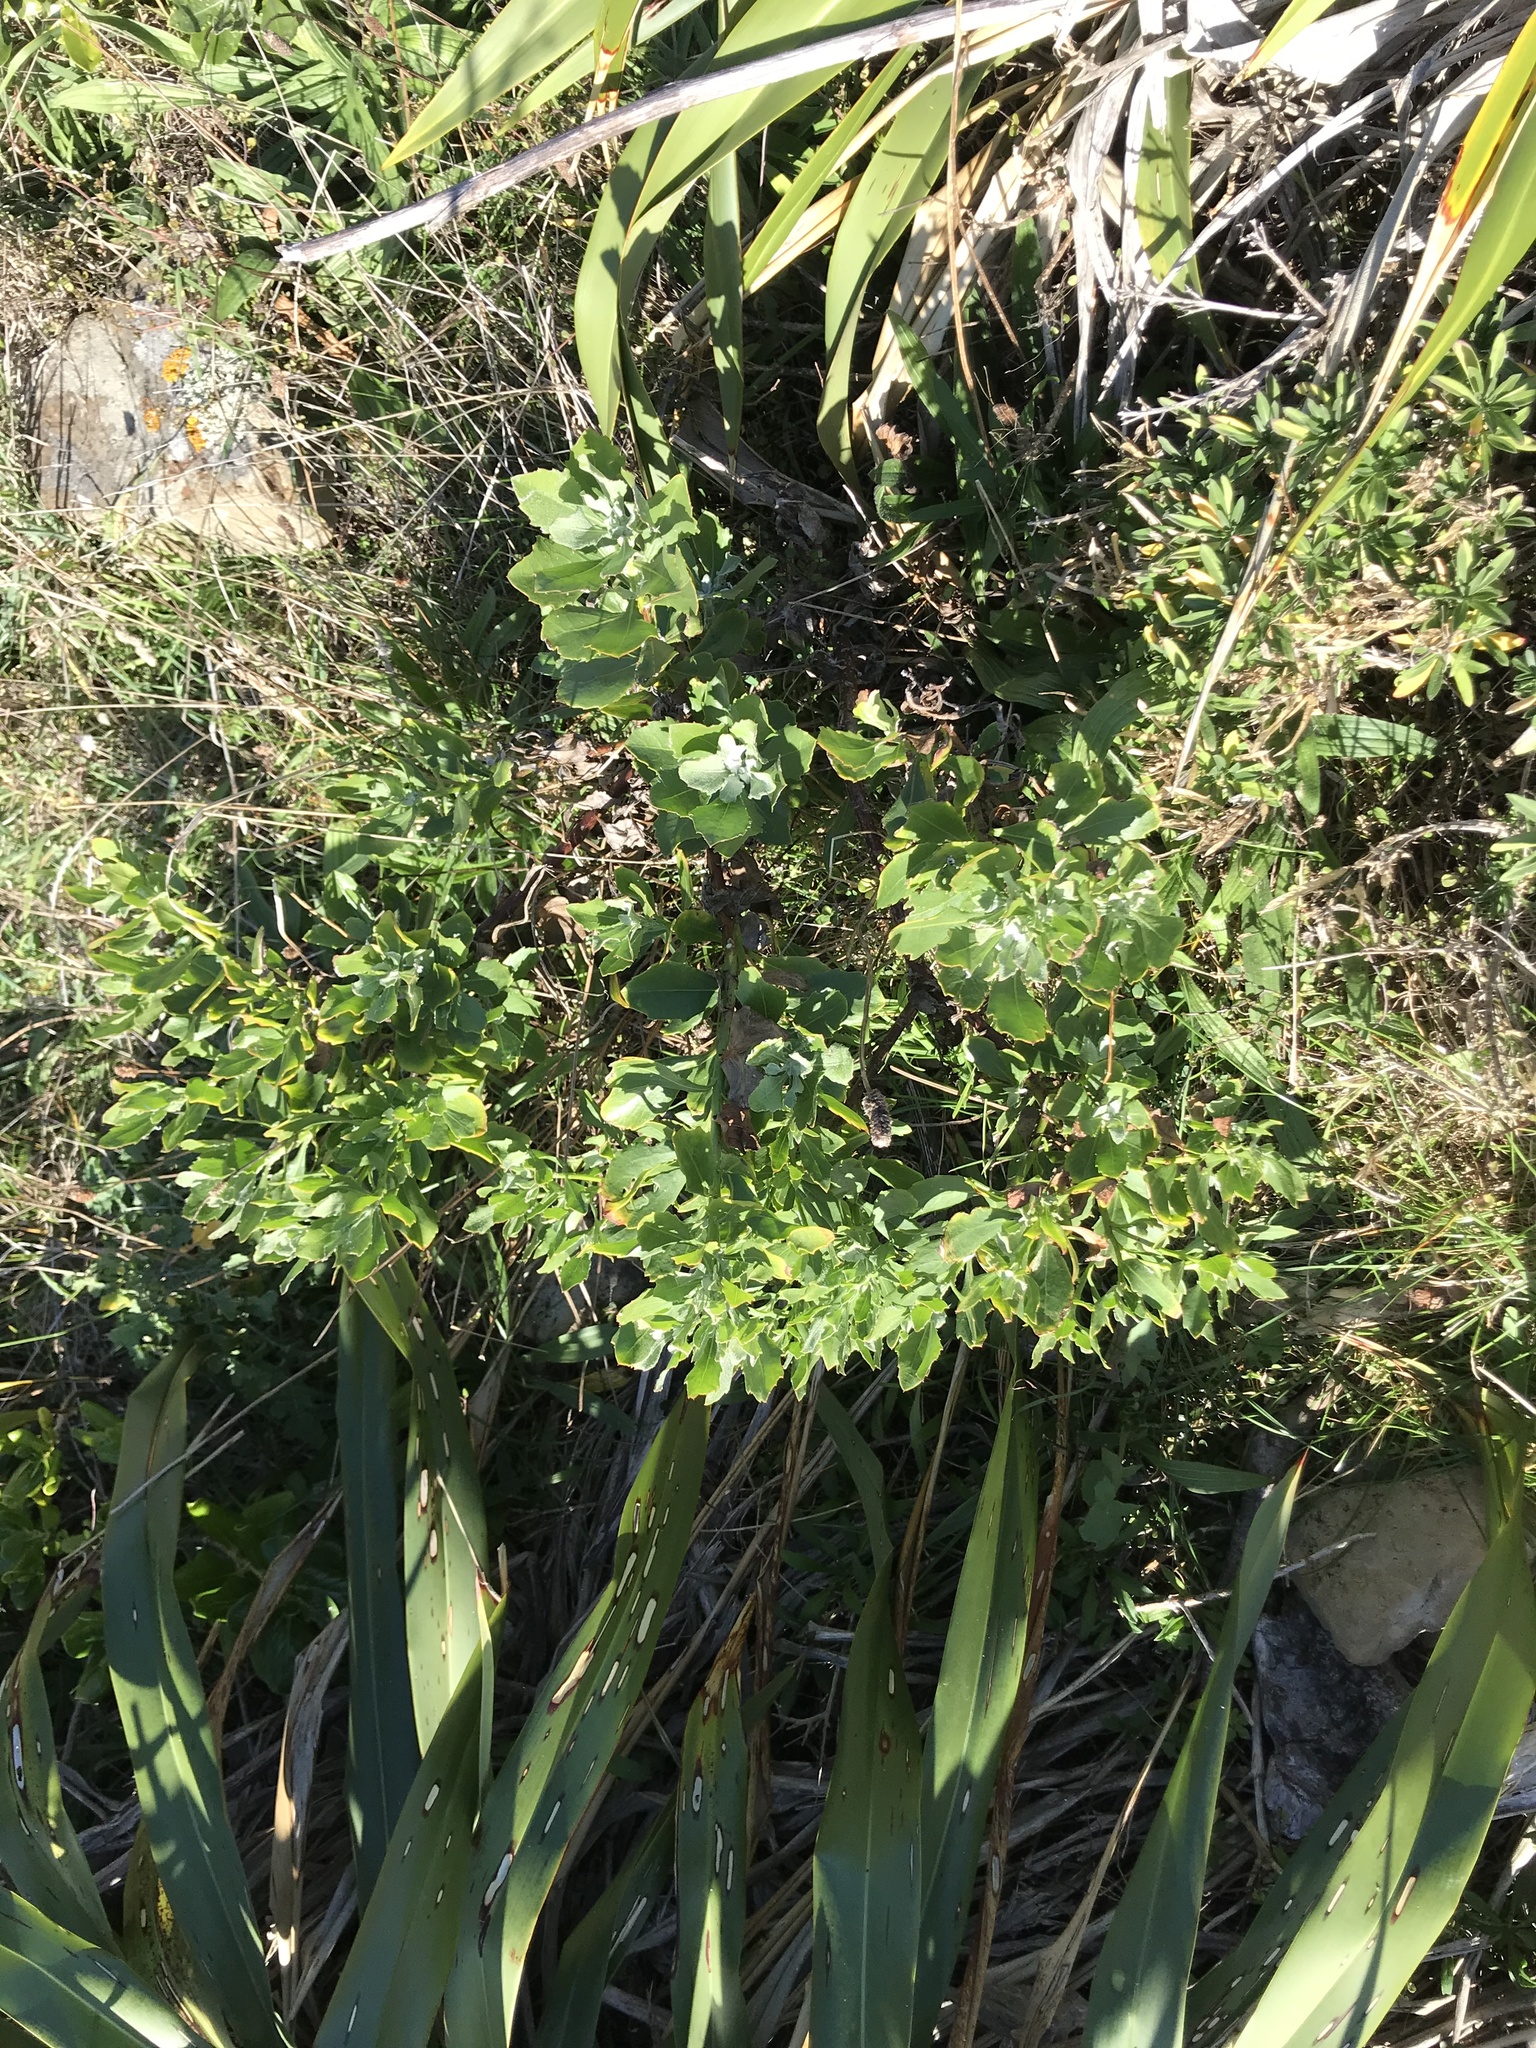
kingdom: Plantae
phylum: Tracheophyta
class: Magnoliopsida
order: Asterales
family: Asteraceae
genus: Osteospermum
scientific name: Osteospermum moniliferum
